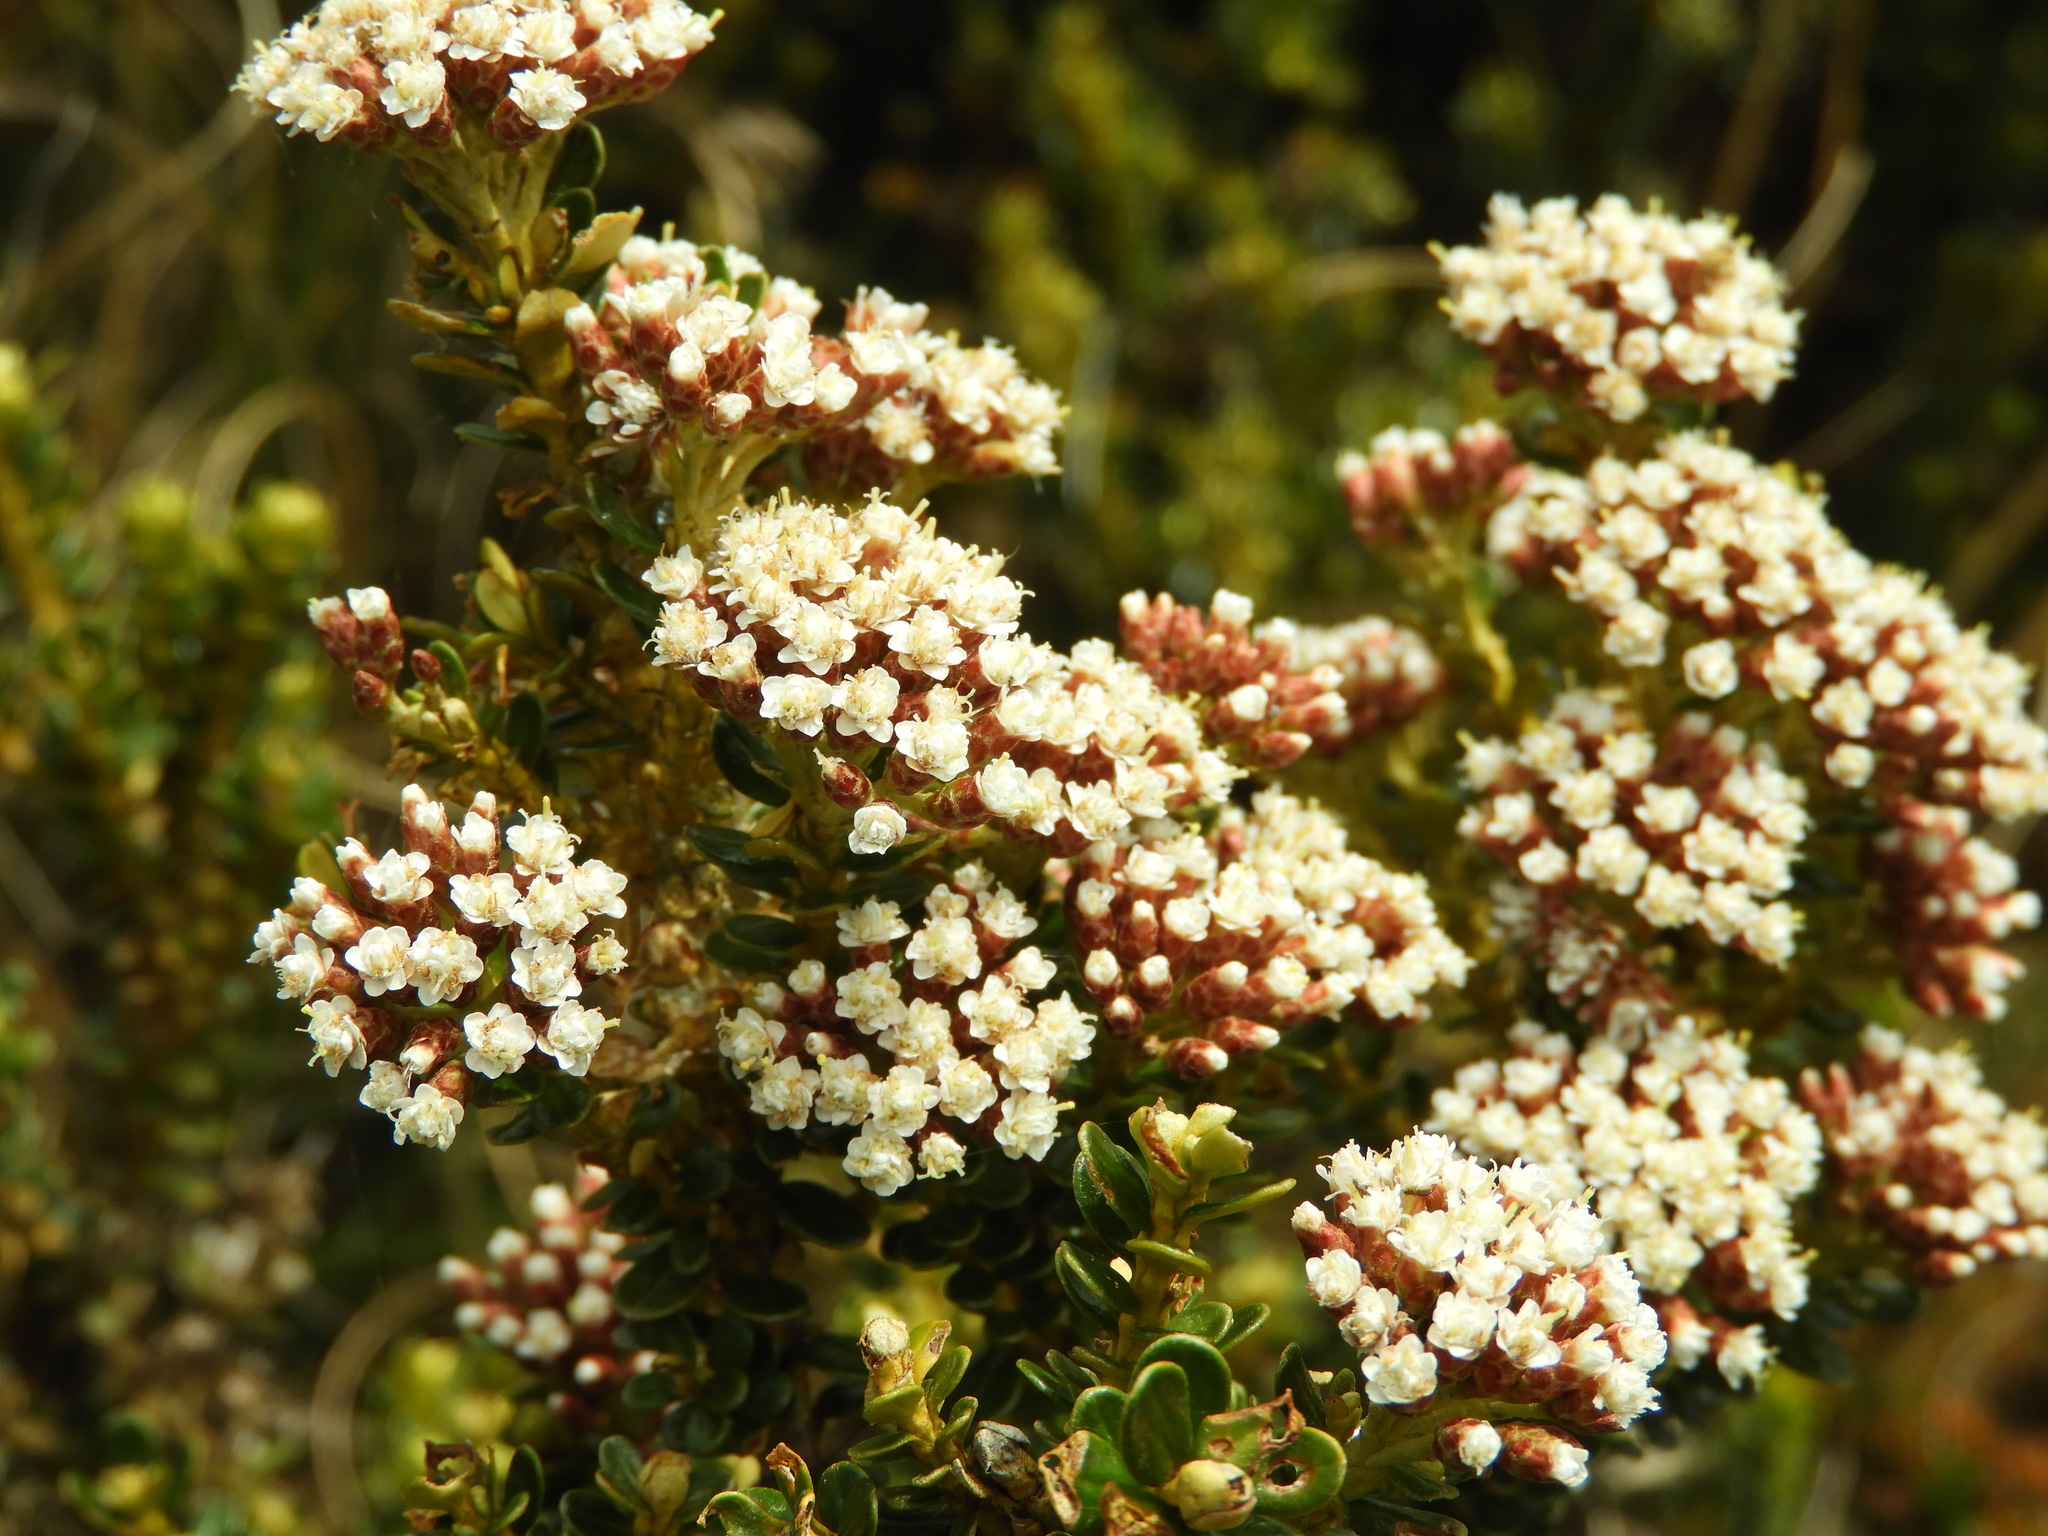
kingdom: Plantae
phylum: Tracheophyta
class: Magnoliopsida
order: Asterales
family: Asteraceae
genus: Ozothamnus
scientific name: Ozothamnus leptophyllus
